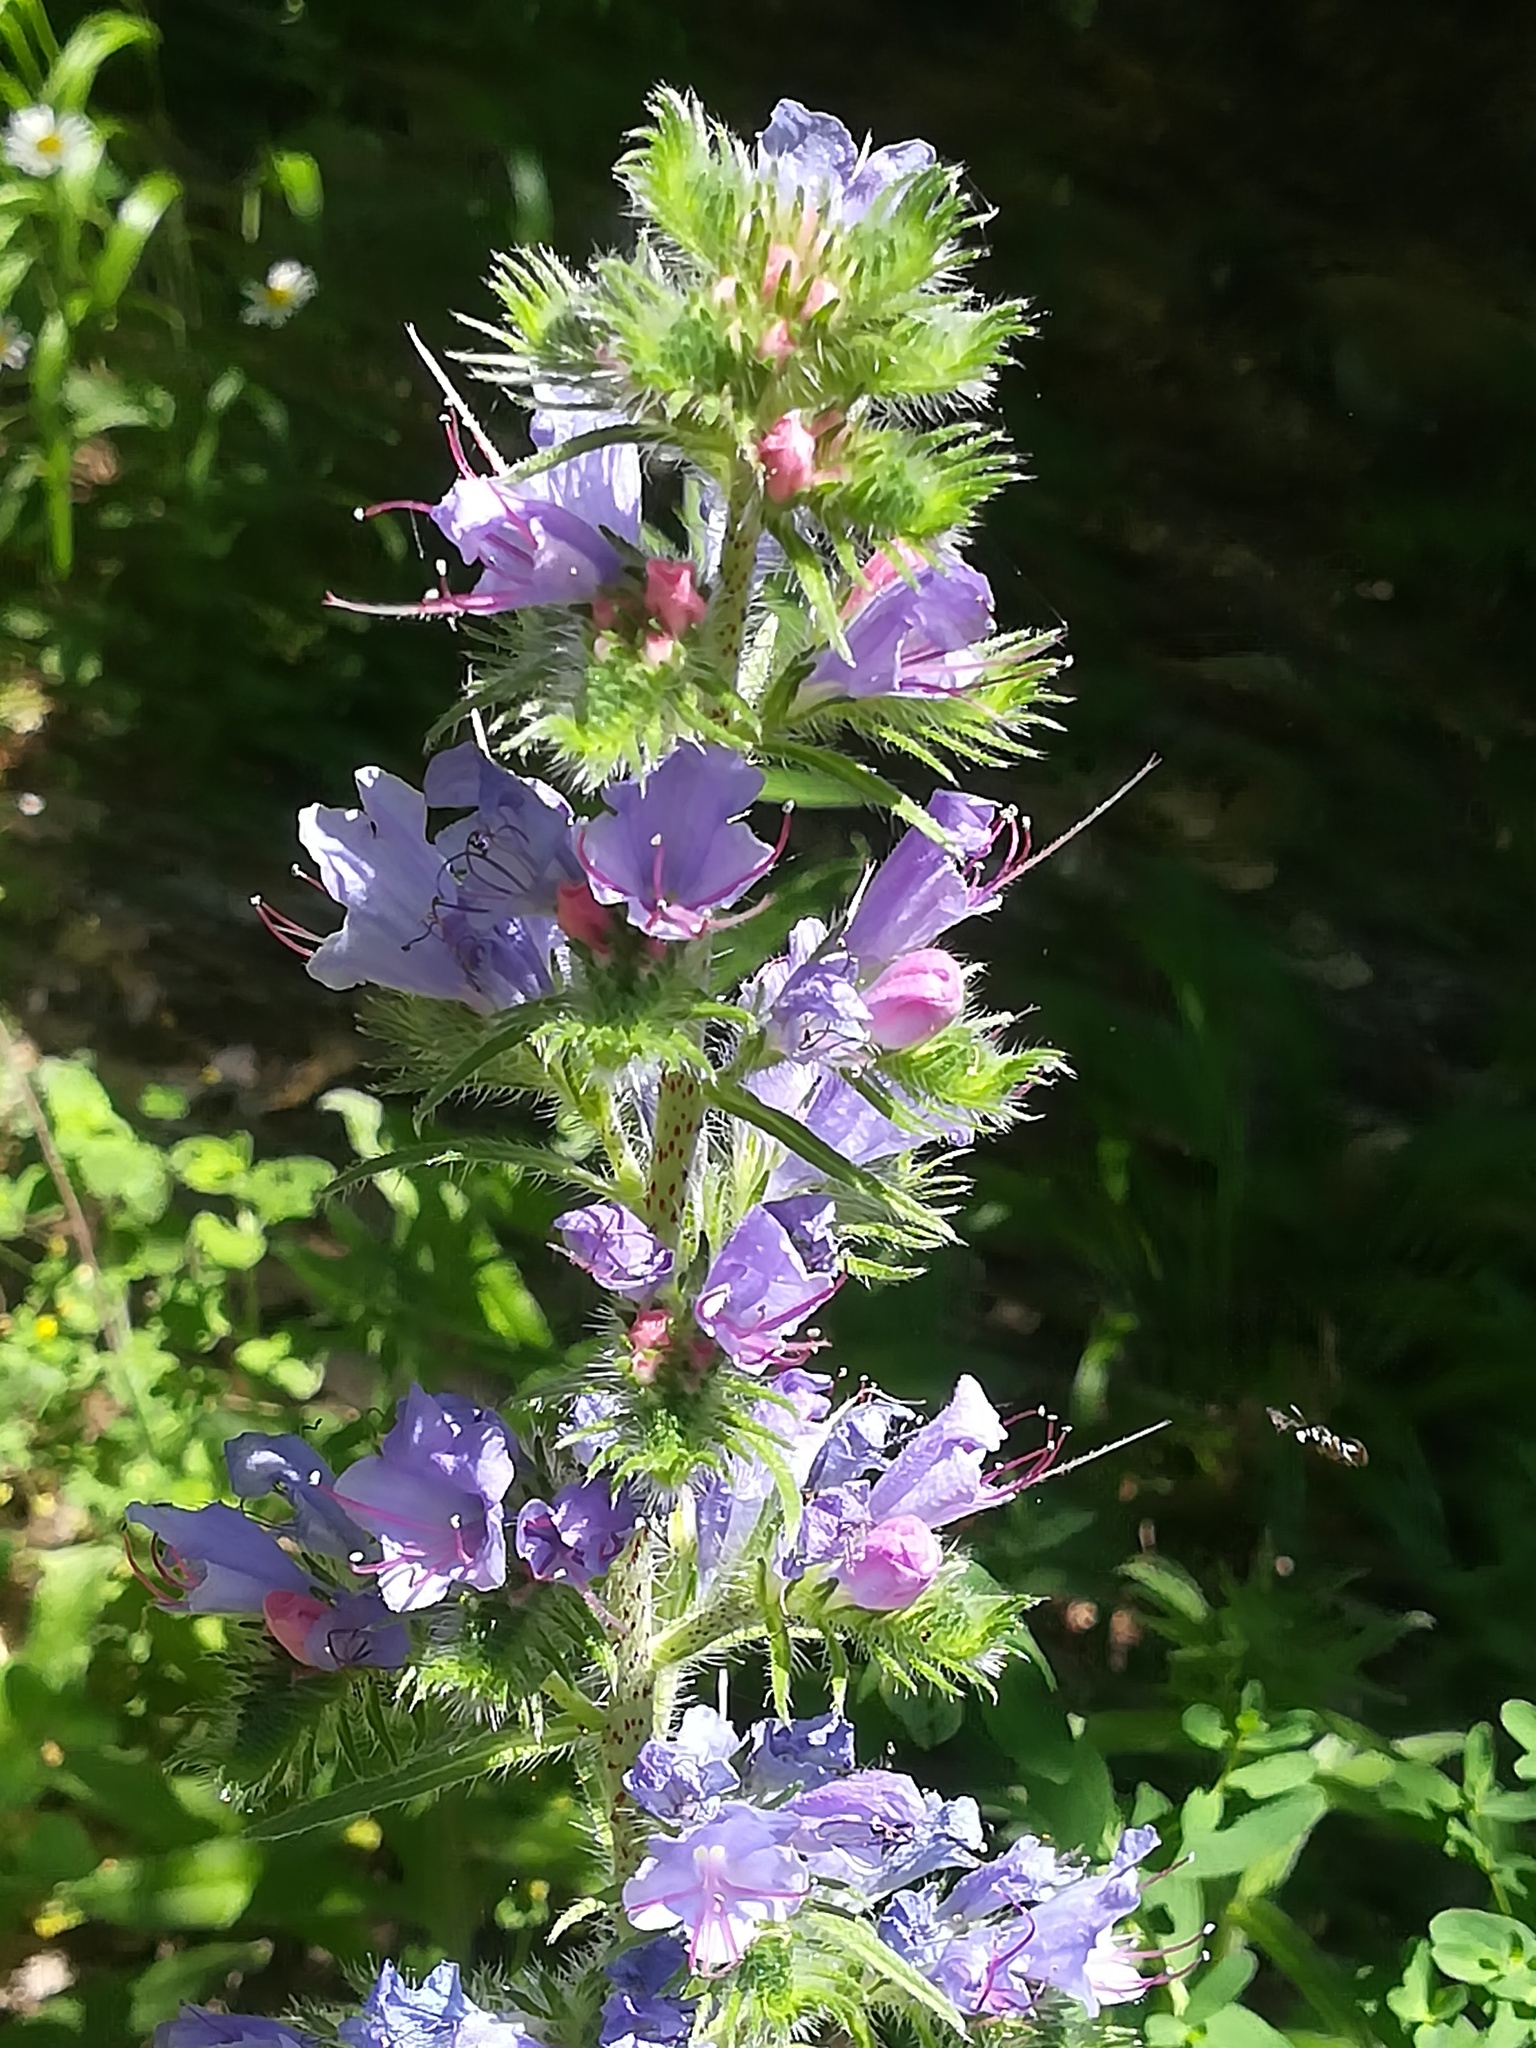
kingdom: Plantae
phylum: Tracheophyta
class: Magnoliopsida
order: Boraginales
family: Boraginaceae
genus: Echium
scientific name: Echium vulgare
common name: Common viper's bugloss
